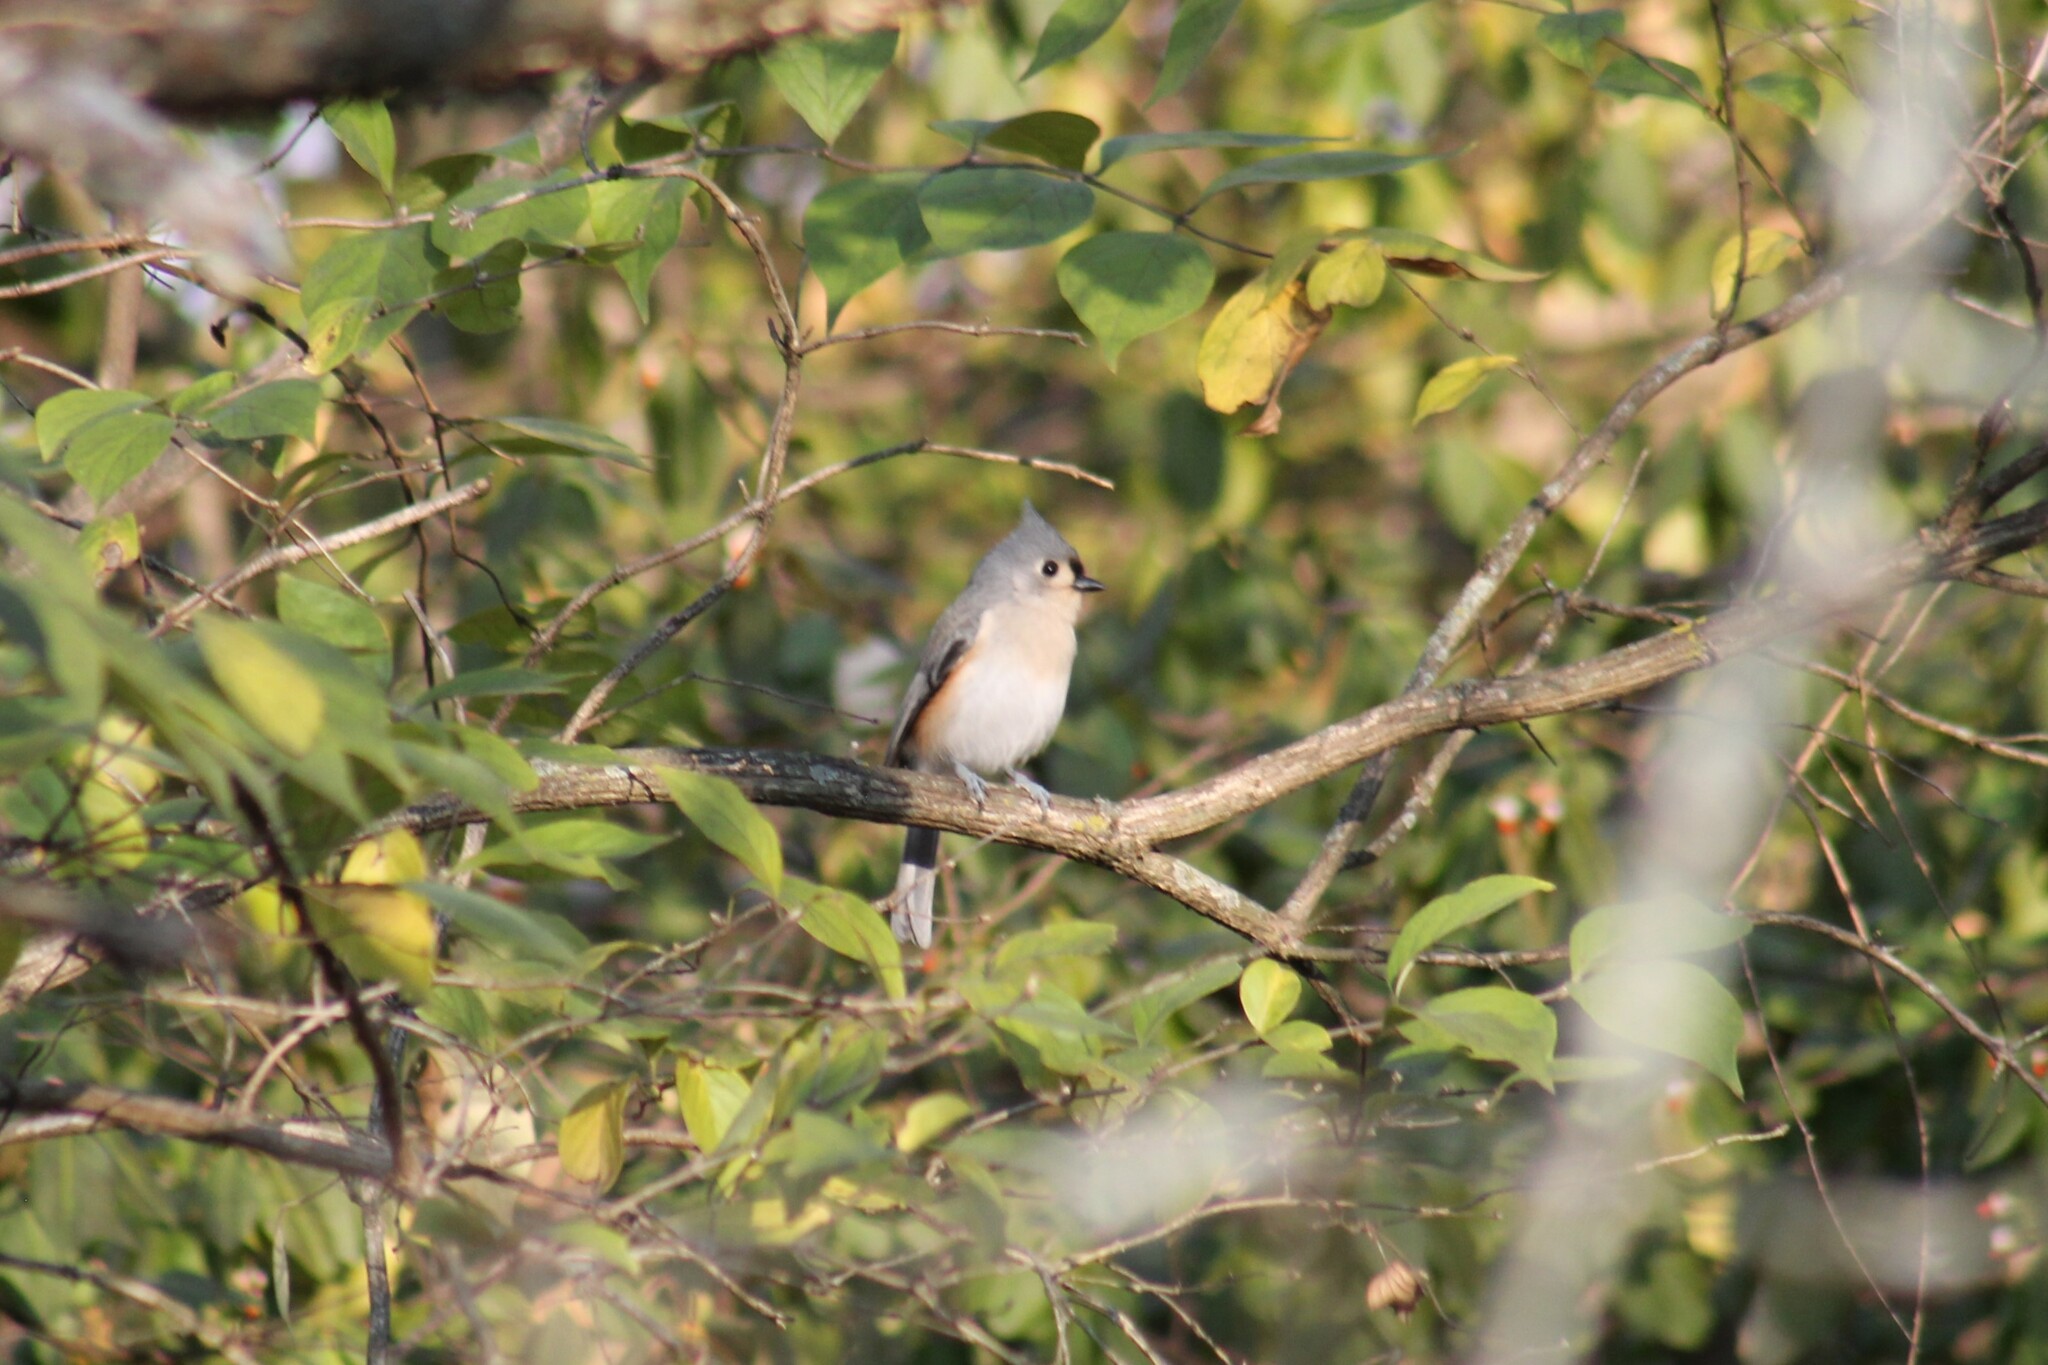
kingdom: Animalia
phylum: Chordata
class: Aves
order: Passeriformes
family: Paridae
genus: Baeolophus
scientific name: Baeolophus bicolor
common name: Tufted titmouse
